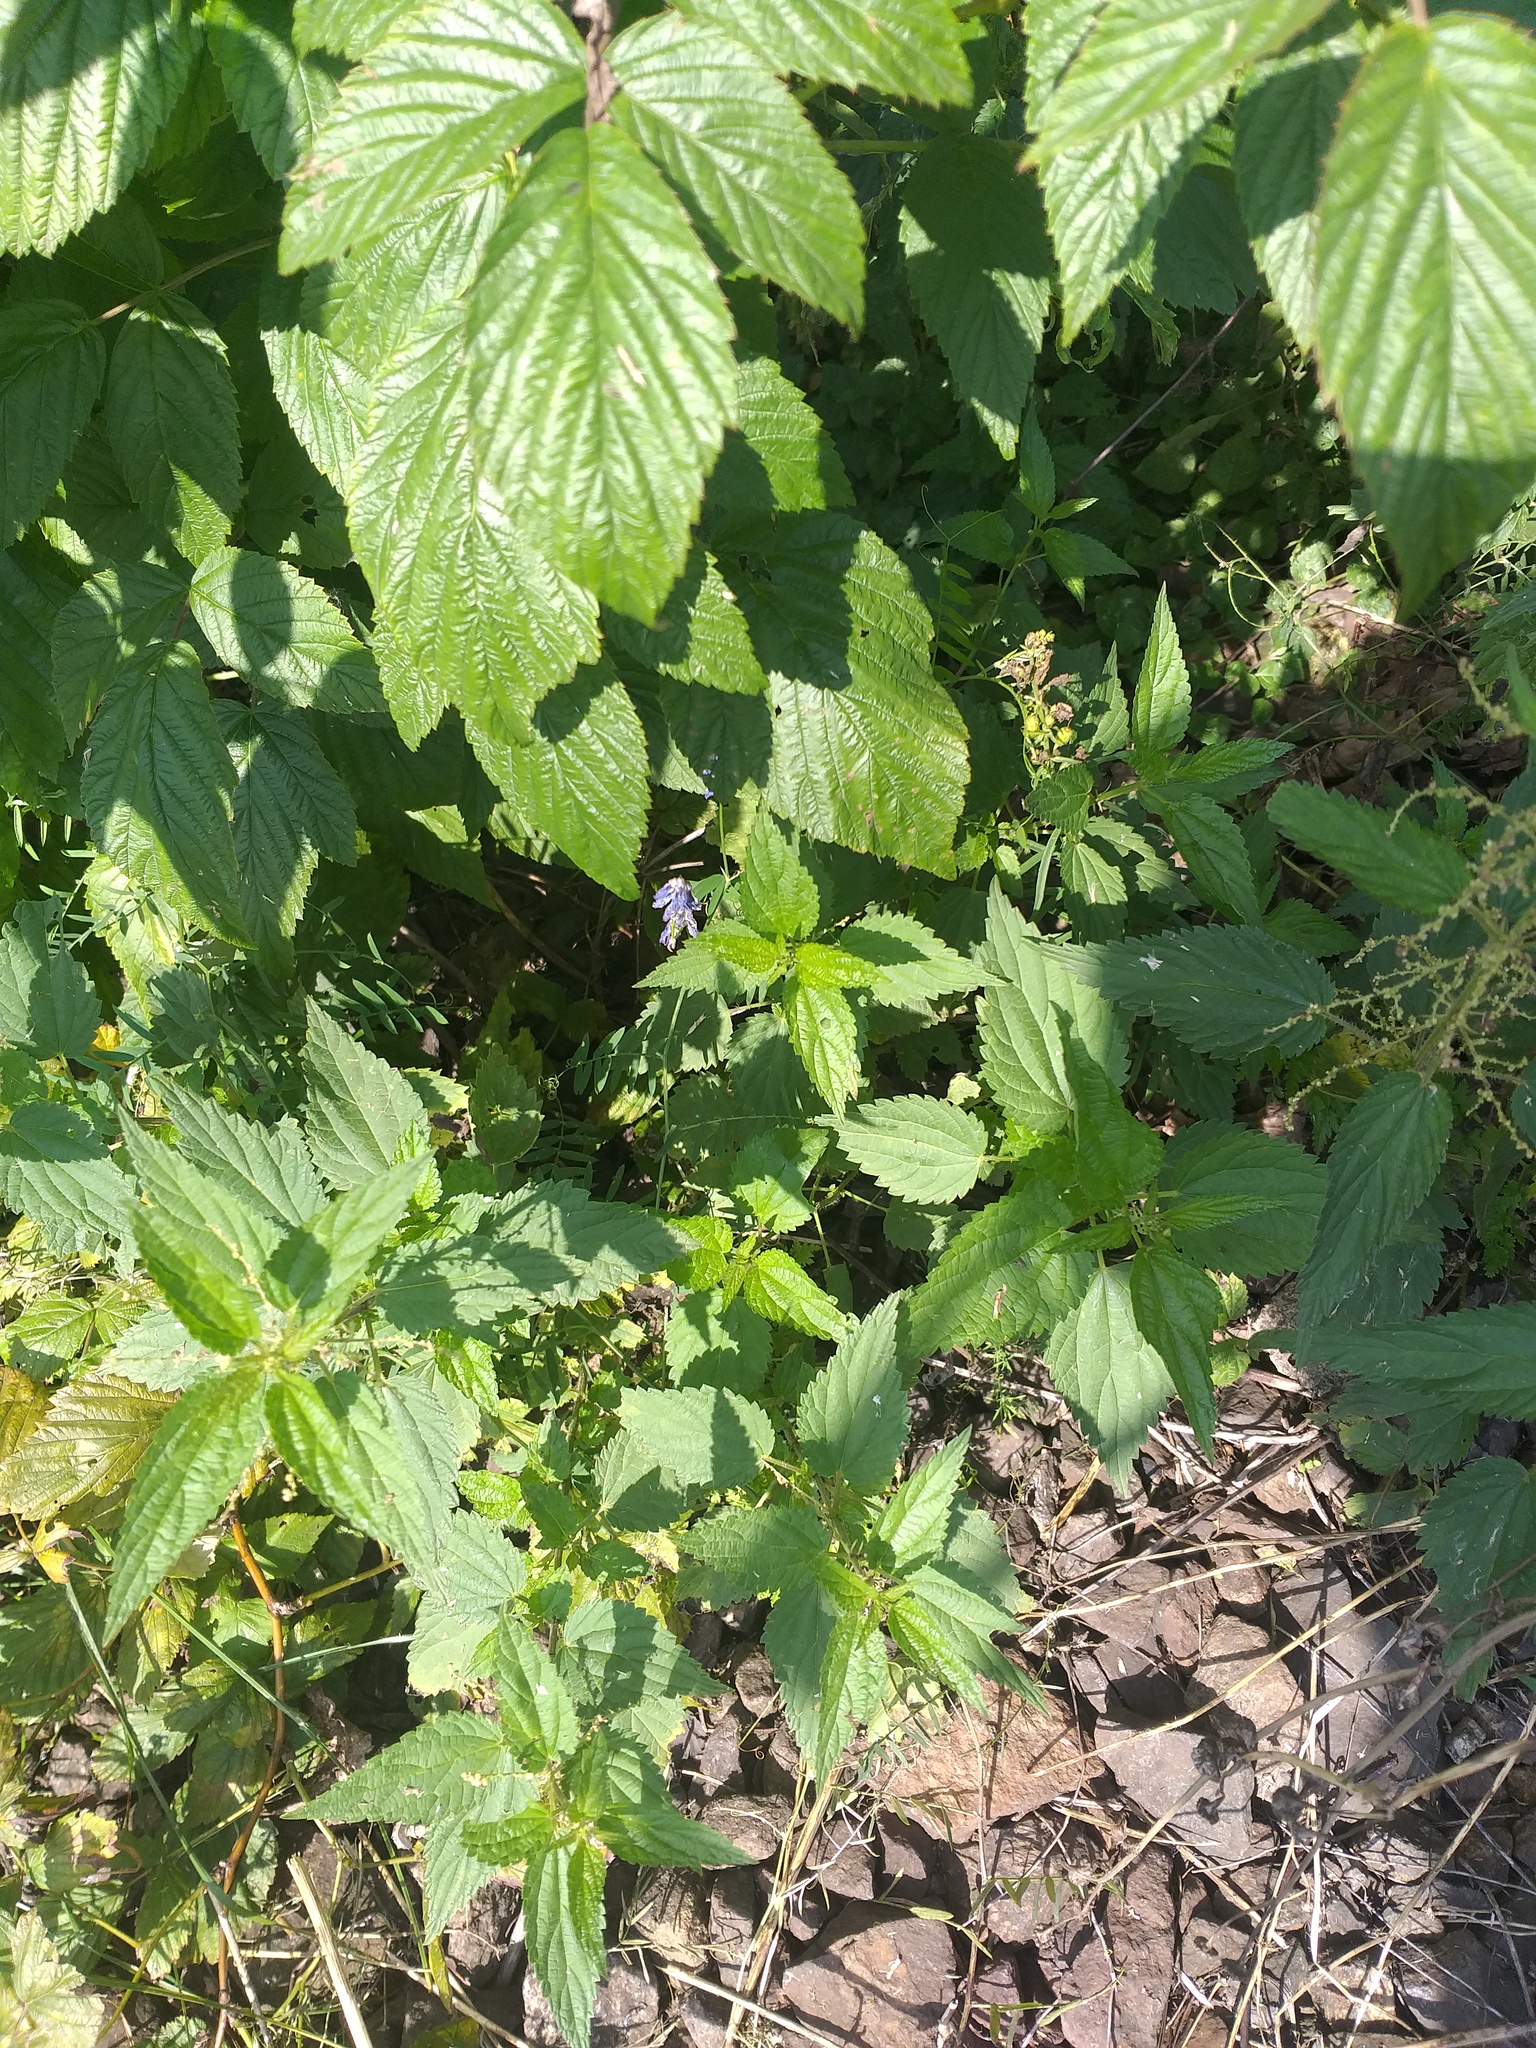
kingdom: Plantae
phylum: Tracheophyta
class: Magnoliopsida
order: Rosales
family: Urticaceae
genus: Urtica
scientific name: Urtica dioica
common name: Common nettle
